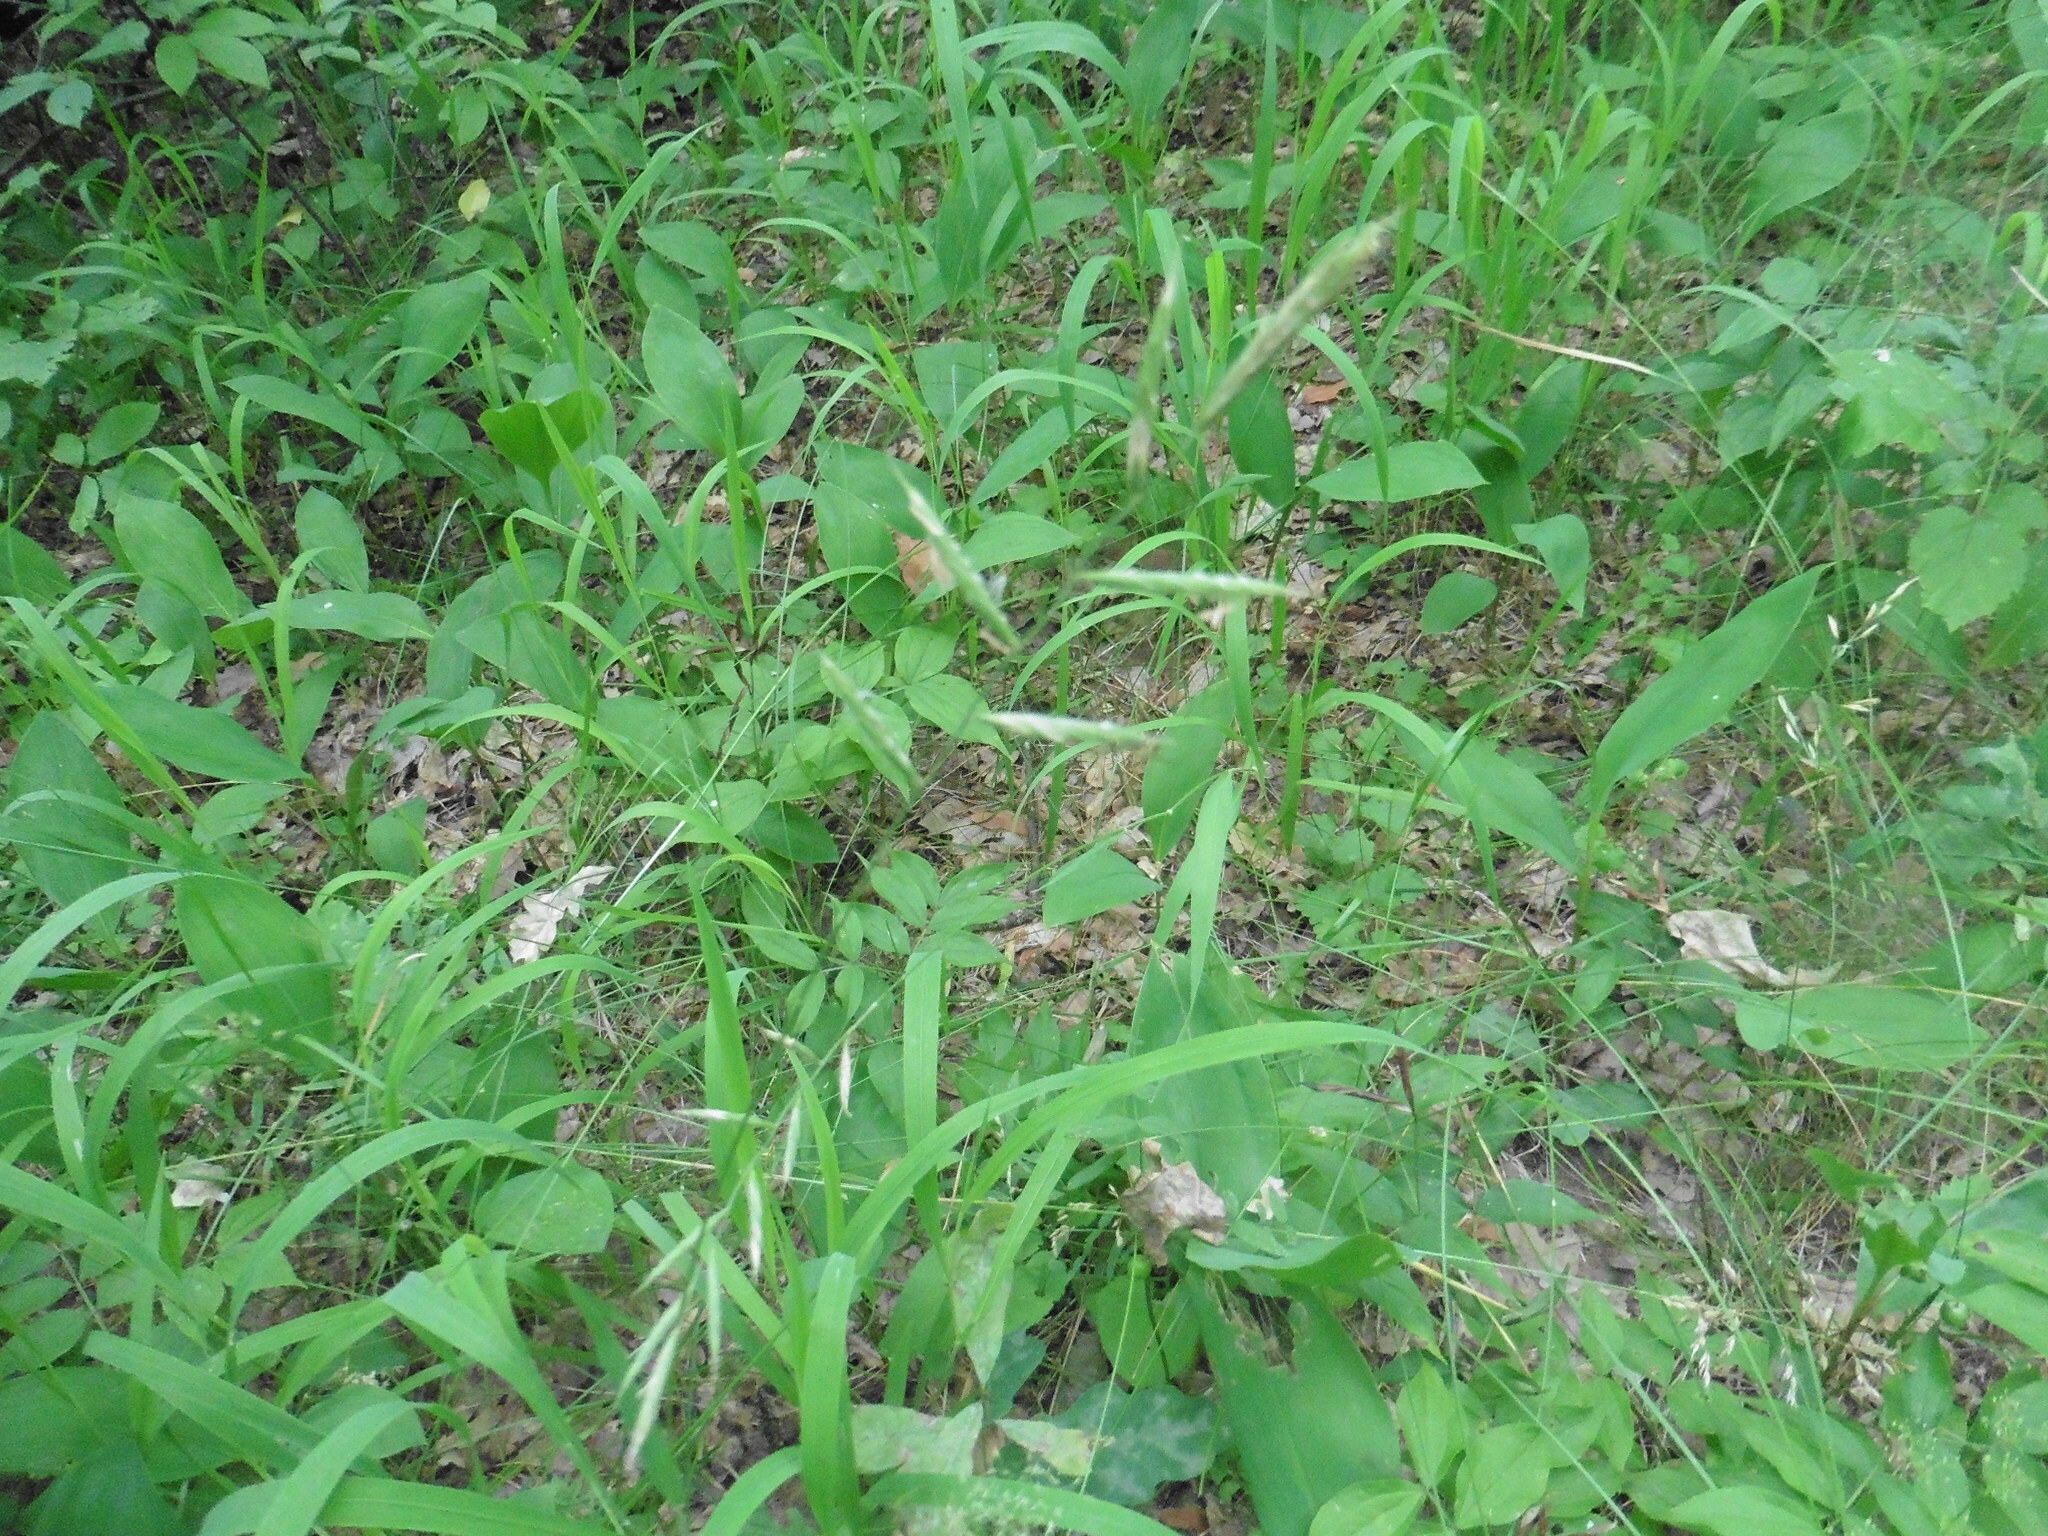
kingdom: Plantae
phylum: Tracheophyta
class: Liliopsida
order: Poales
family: Poaceae
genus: Brachypodium
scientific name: Brachypodium pinnatum
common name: Tor grass
